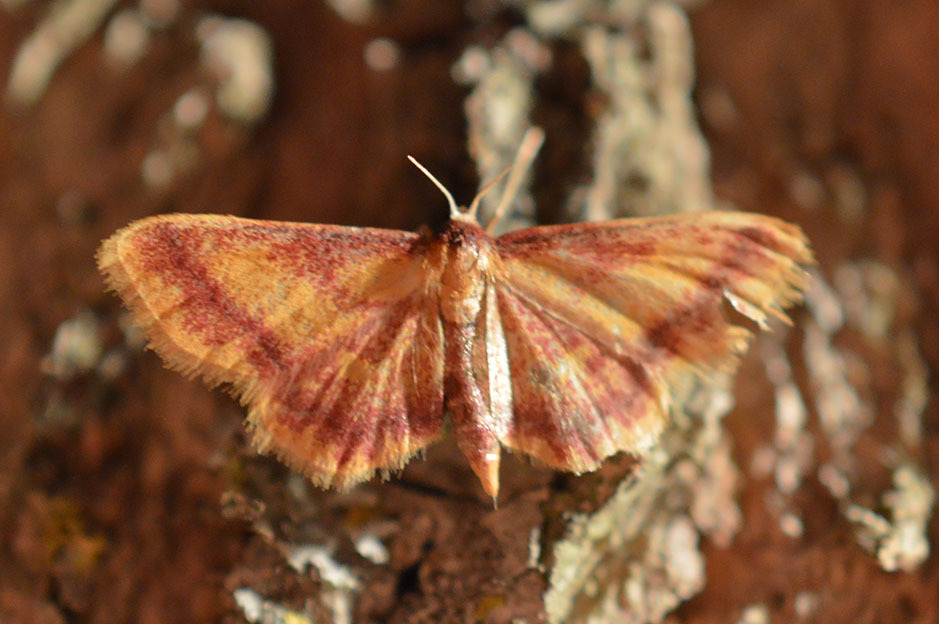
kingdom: Animalia
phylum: Arthropoda
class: Insecta
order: Lepidoptera
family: Geometridae
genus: Idaea
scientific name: Idaea muricata
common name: Purple-bordered gold
